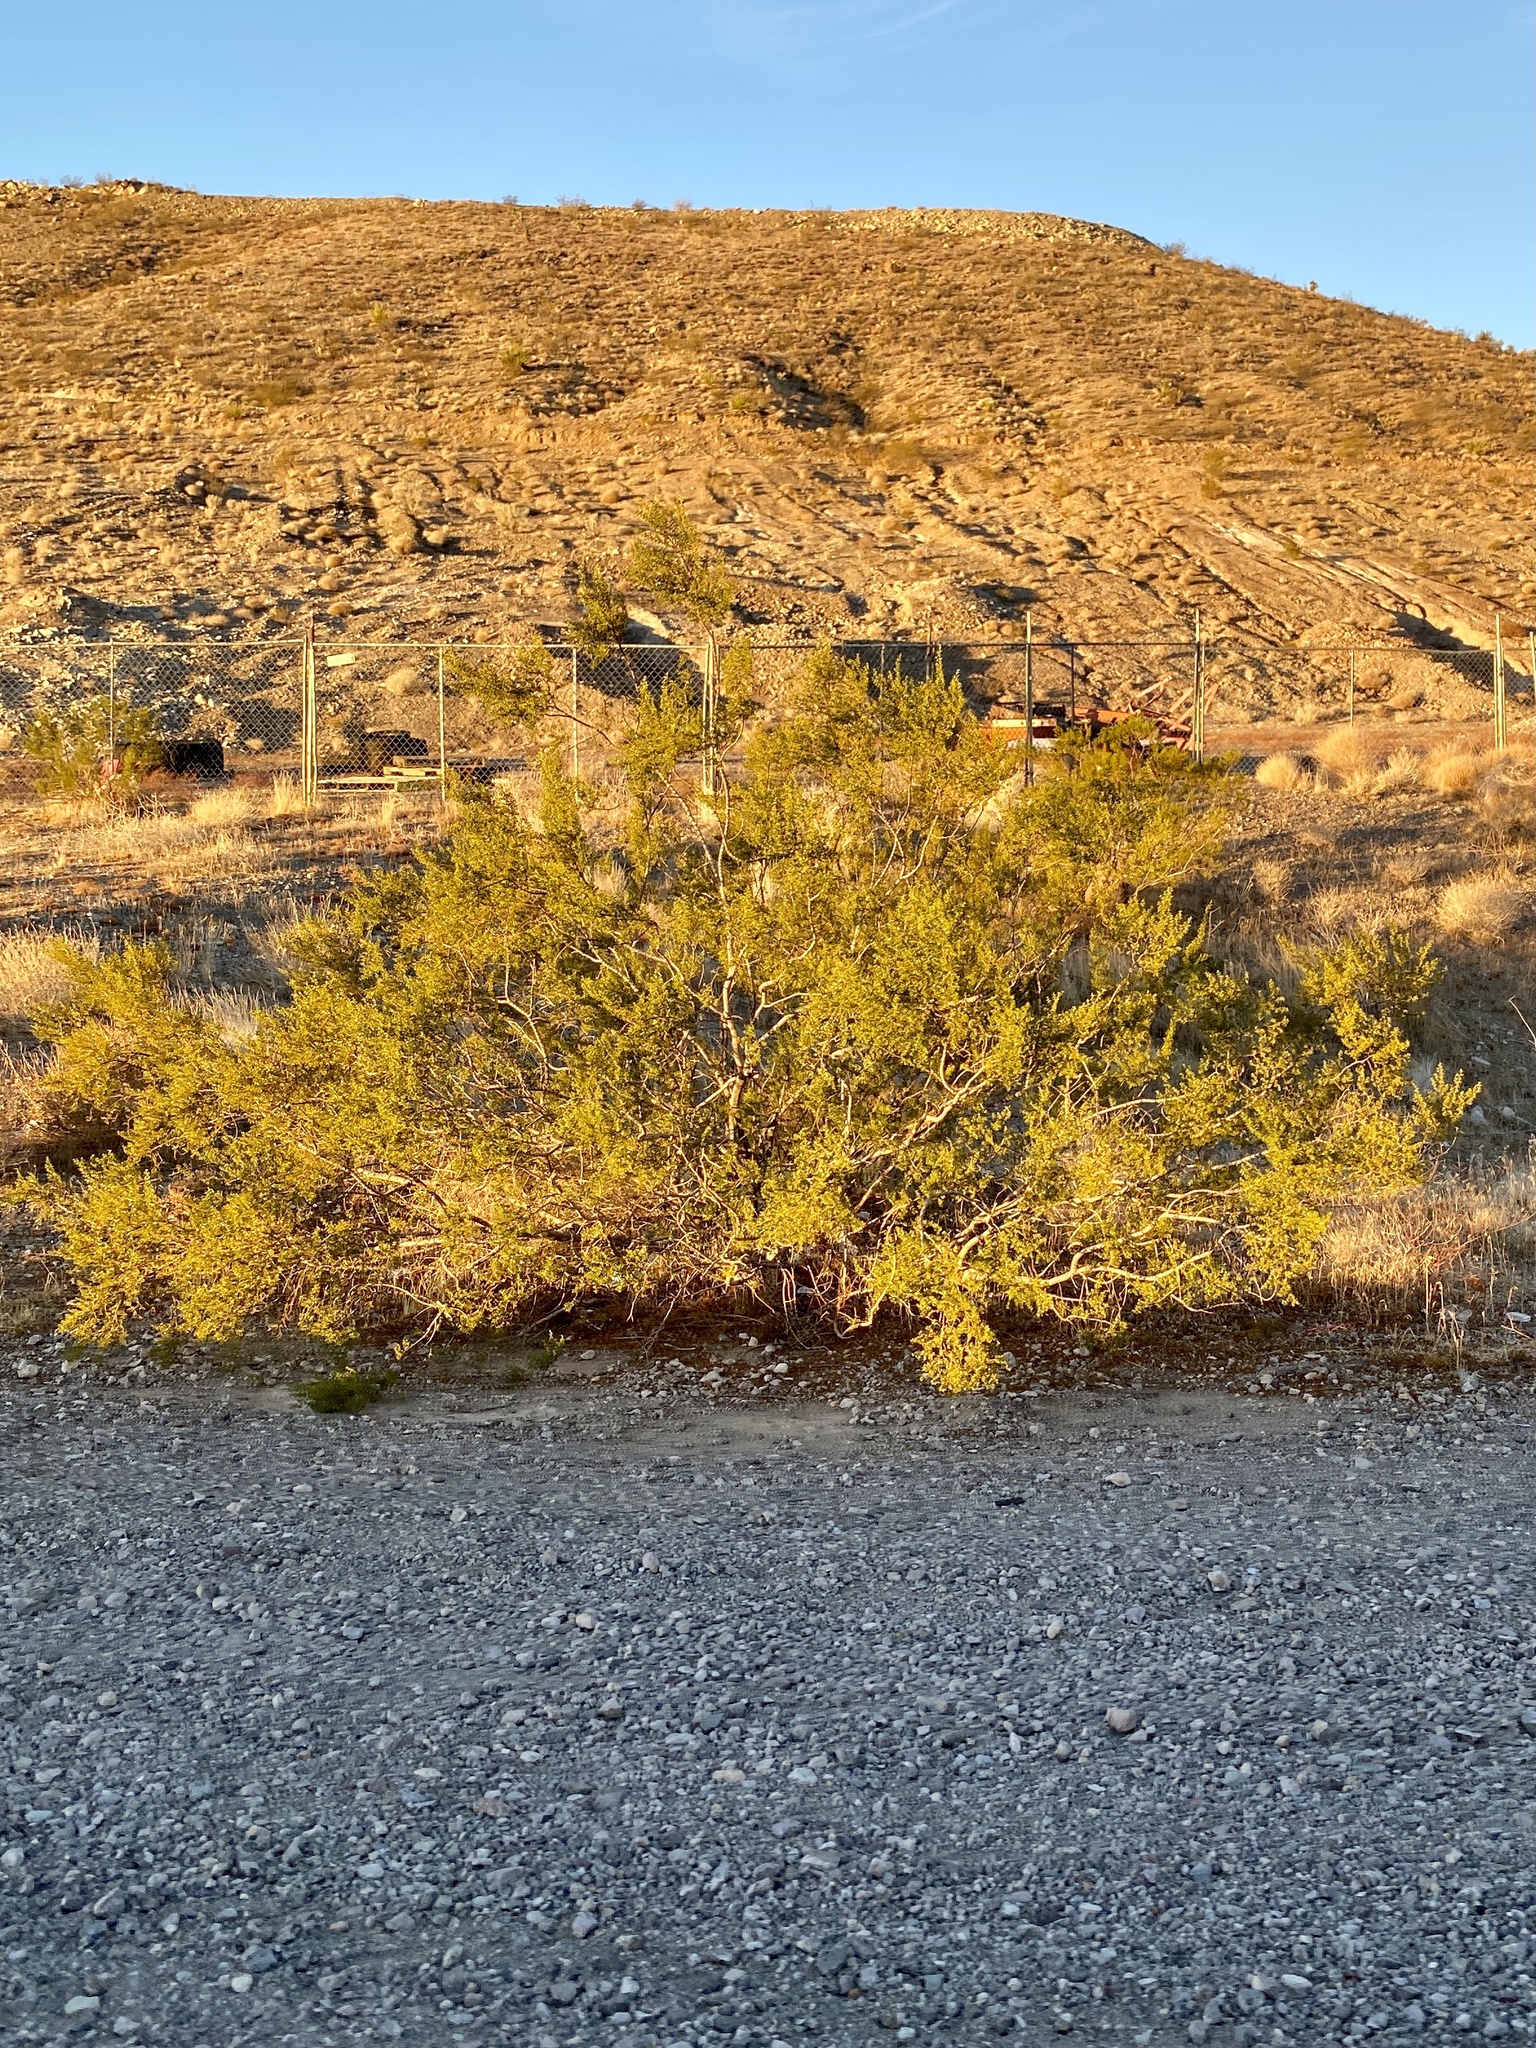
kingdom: Plantae
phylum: Tracheophyta
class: Magnoliopsida
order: Zygophyllales
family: Zygophyllaceae
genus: Larrea
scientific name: Larrea tridentata
